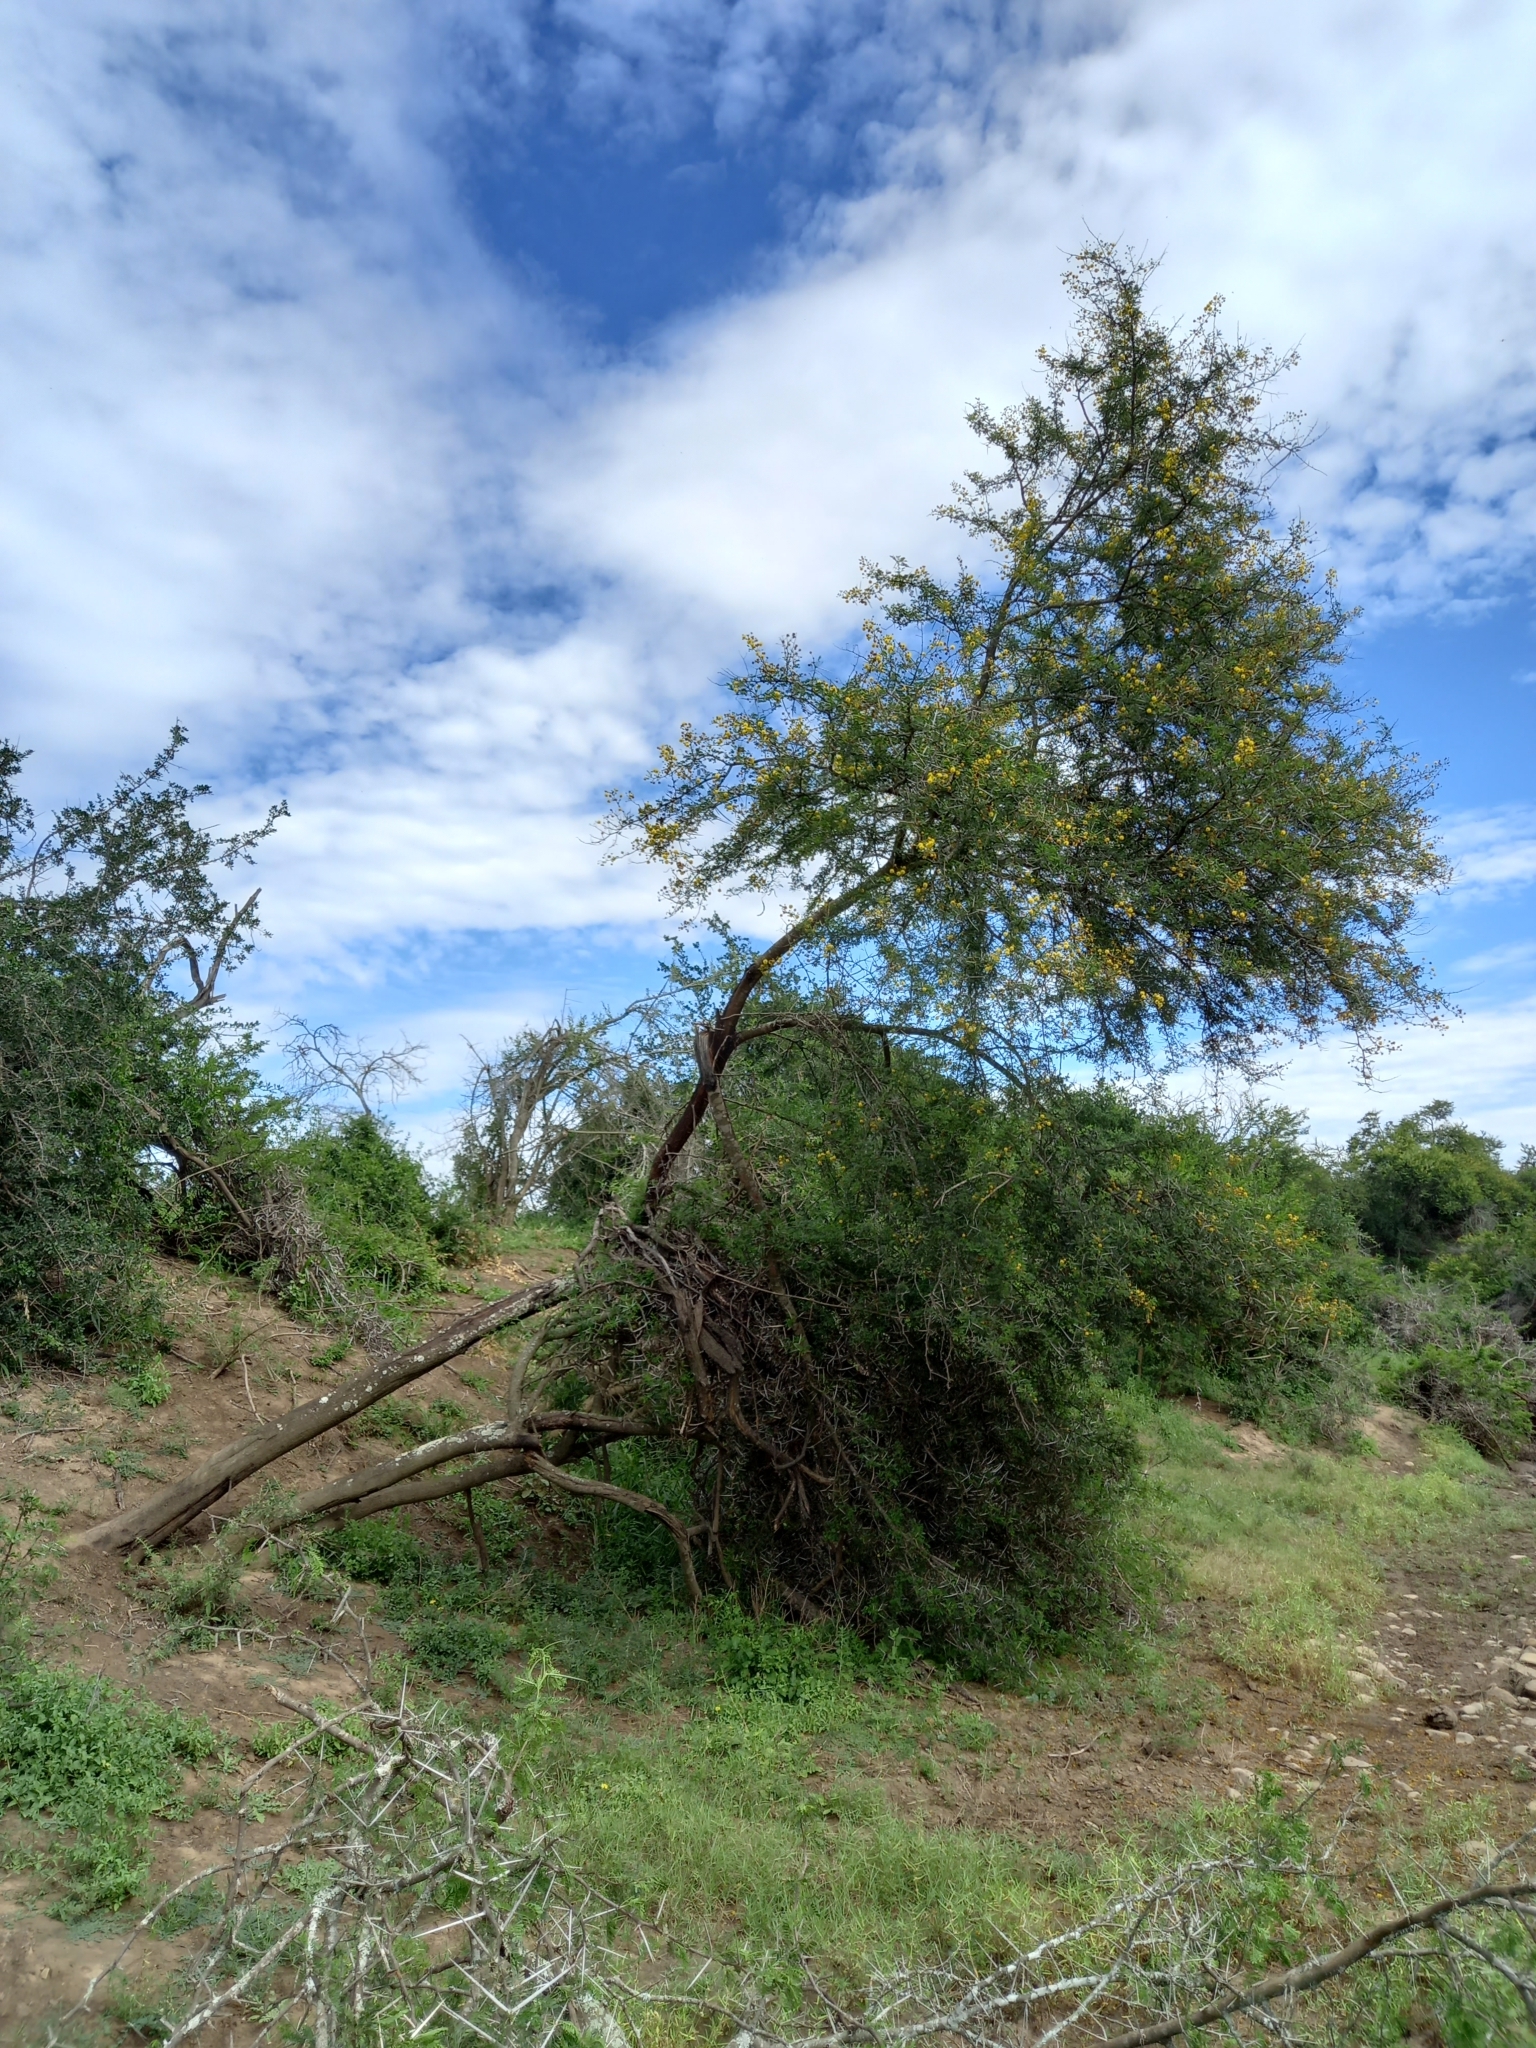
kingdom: Plantae
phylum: Tracheophyta
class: Magnoliopsida
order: Fabales
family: Fabaceae
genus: Vachellia
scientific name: Vachellia karroo
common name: Sweet thorn
